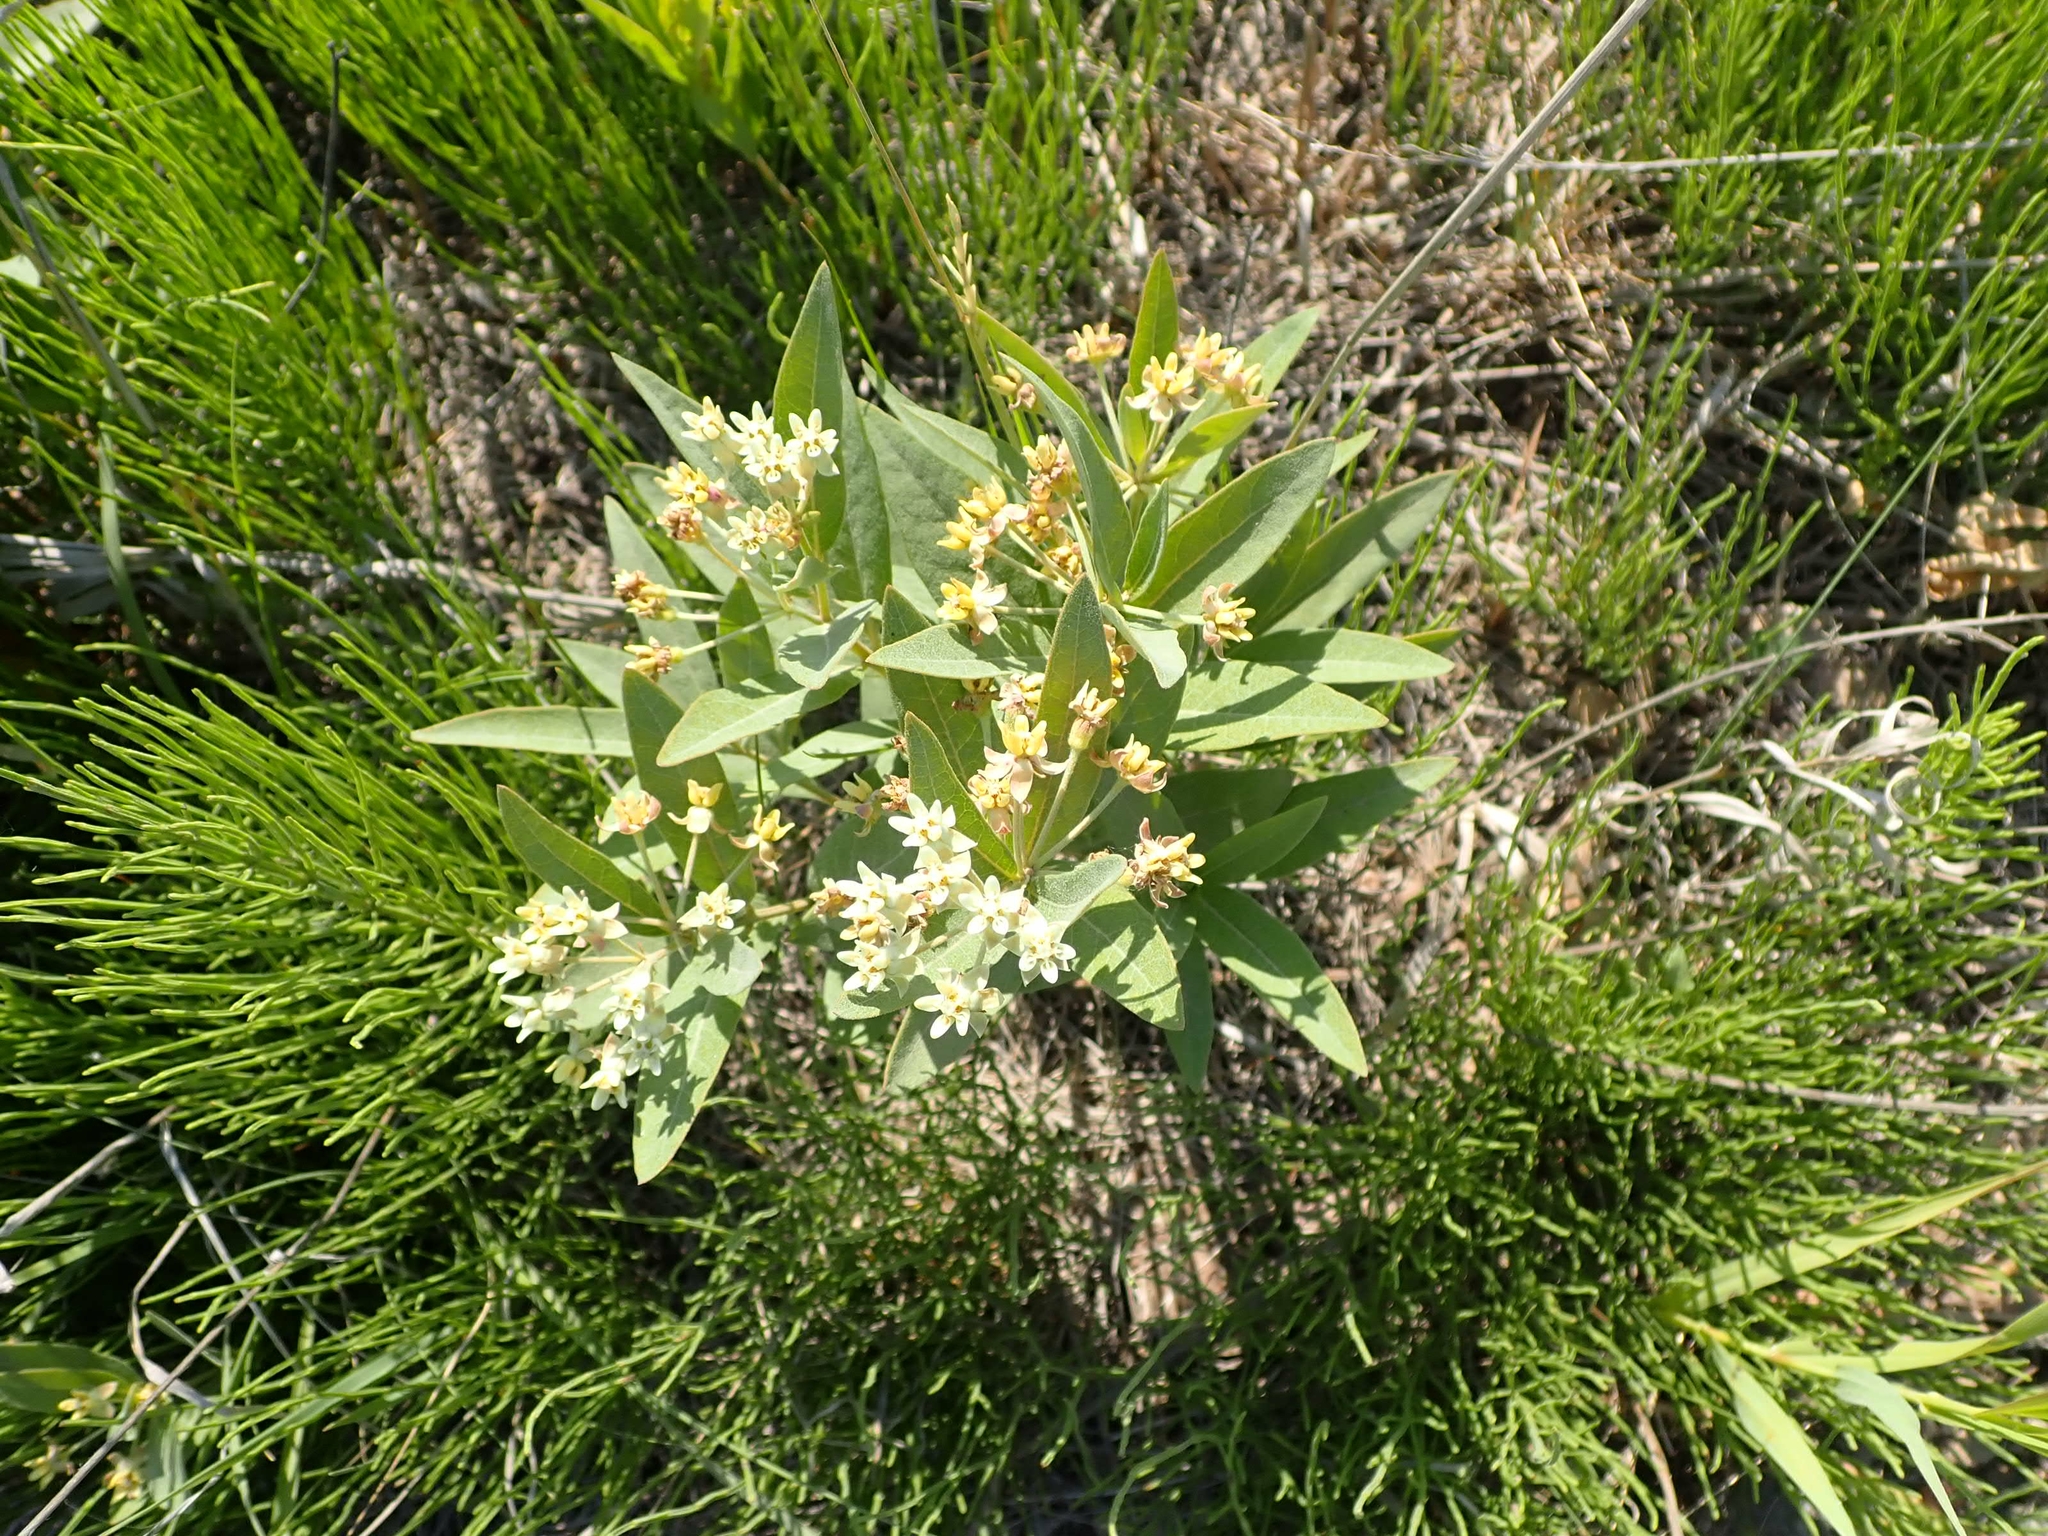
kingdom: Plantae
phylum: Tracheophyta
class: Magnoliopsida
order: Gentianales
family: Apocynaceae
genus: Asclepias
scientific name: Asclepias ovalifolia
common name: Dwarf milkweed
